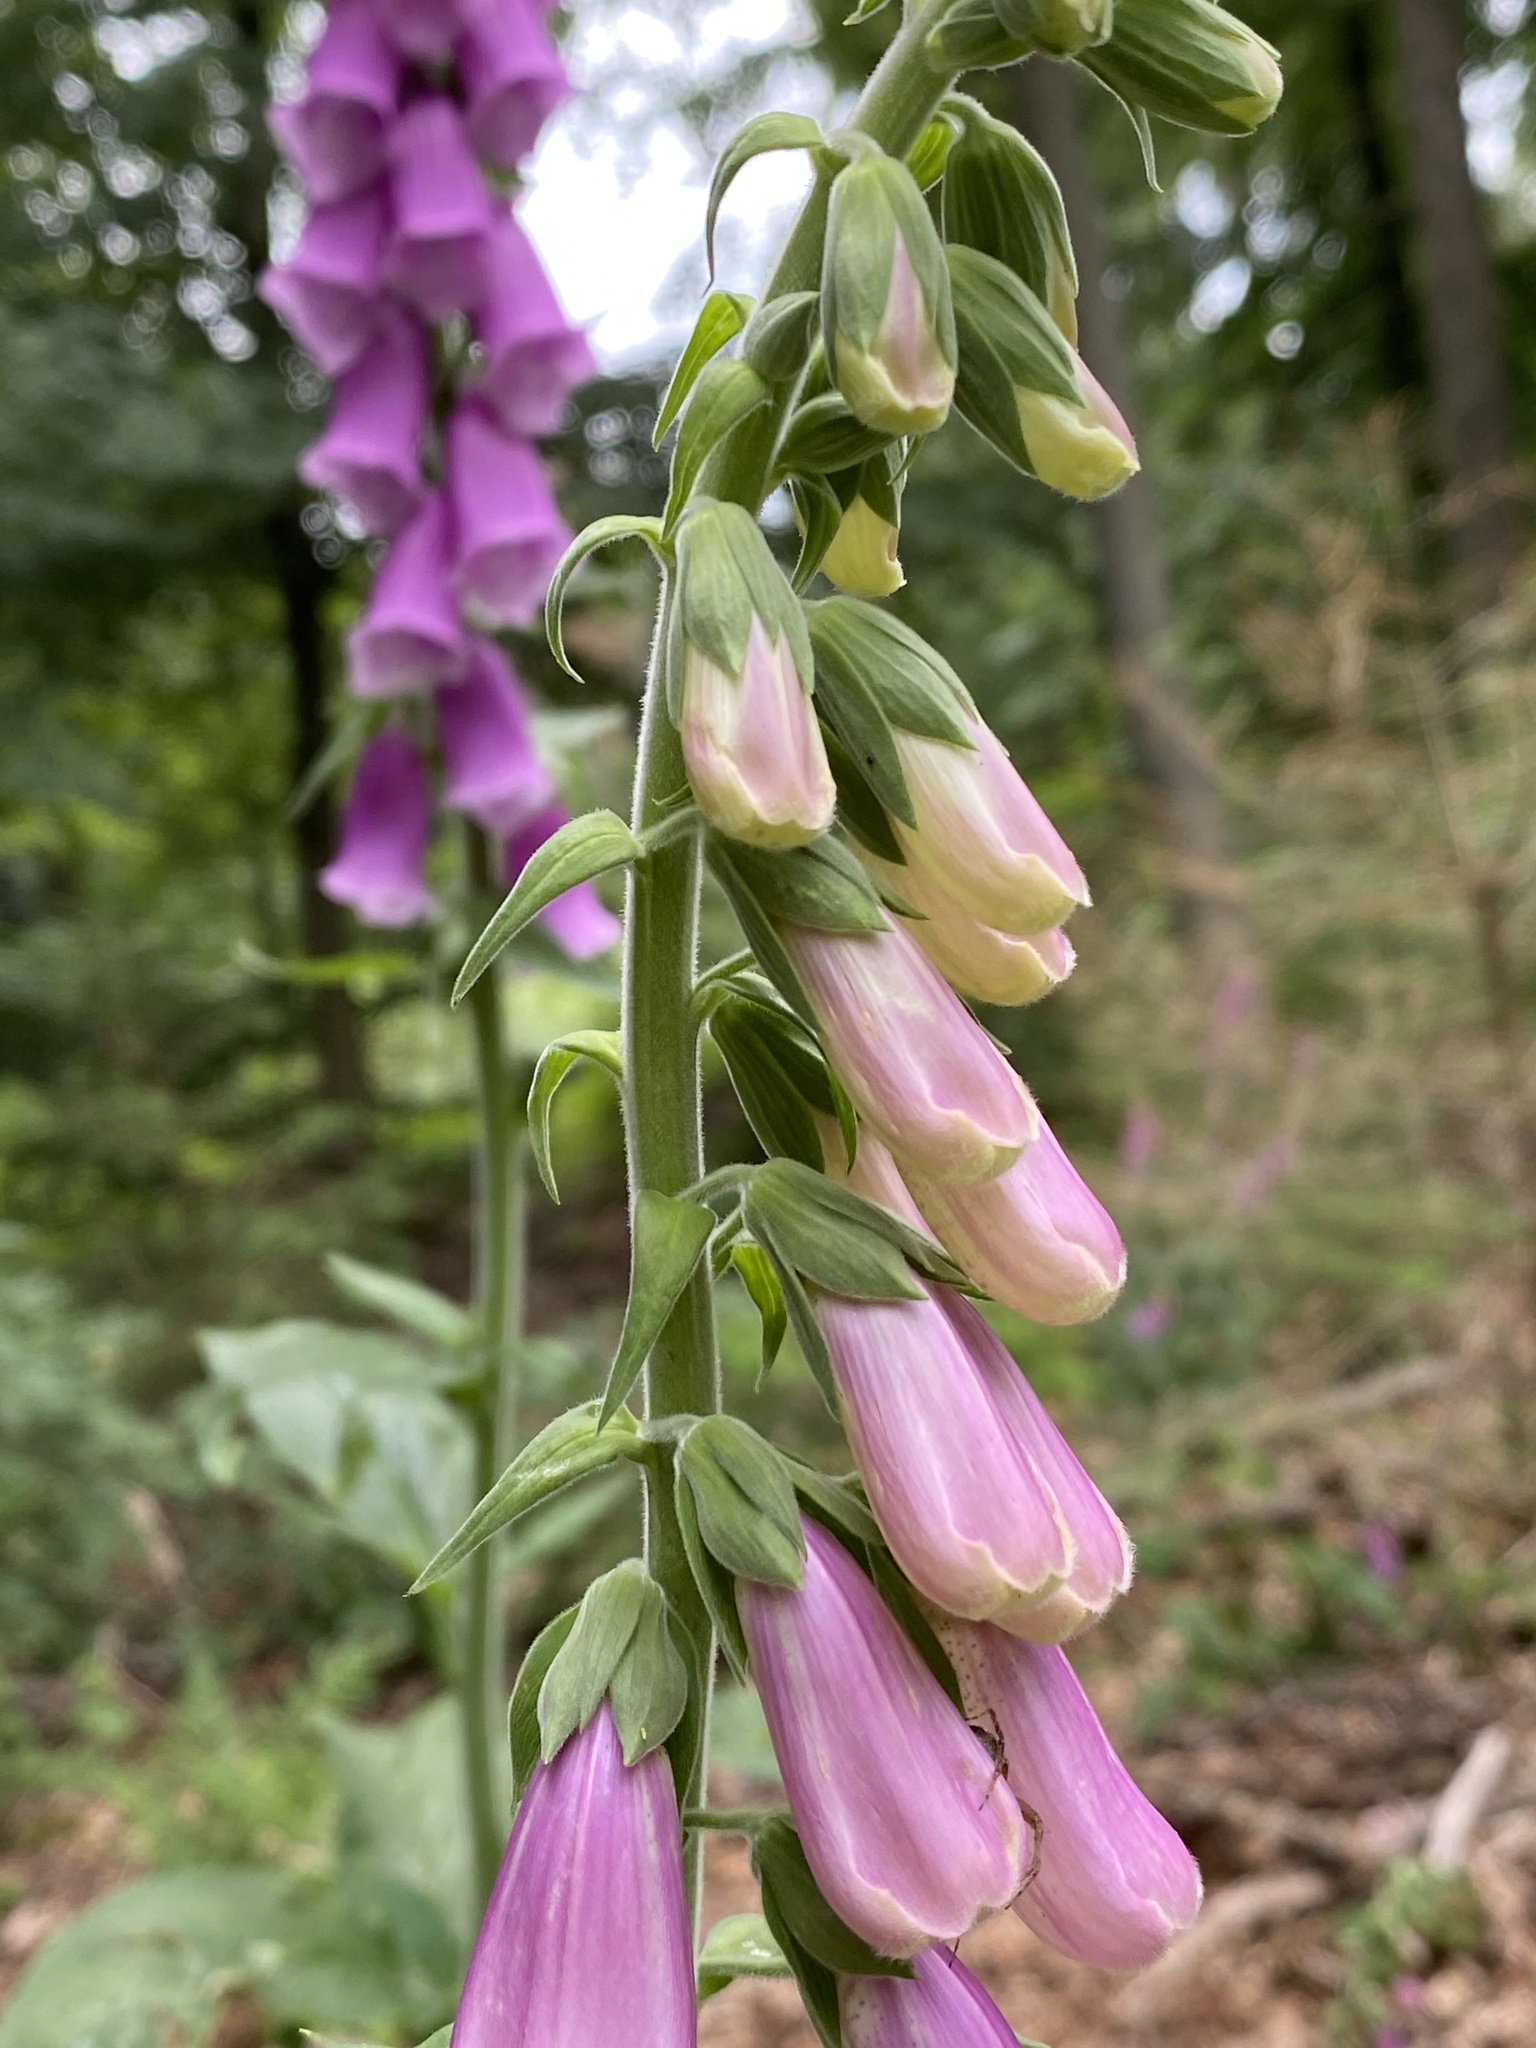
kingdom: Plantae
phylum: Tracheophyta
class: Magnoliopsida
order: Lamiales
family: Plantaginaceae
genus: Digitalis
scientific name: Digitalis purpurea
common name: Foxglove
